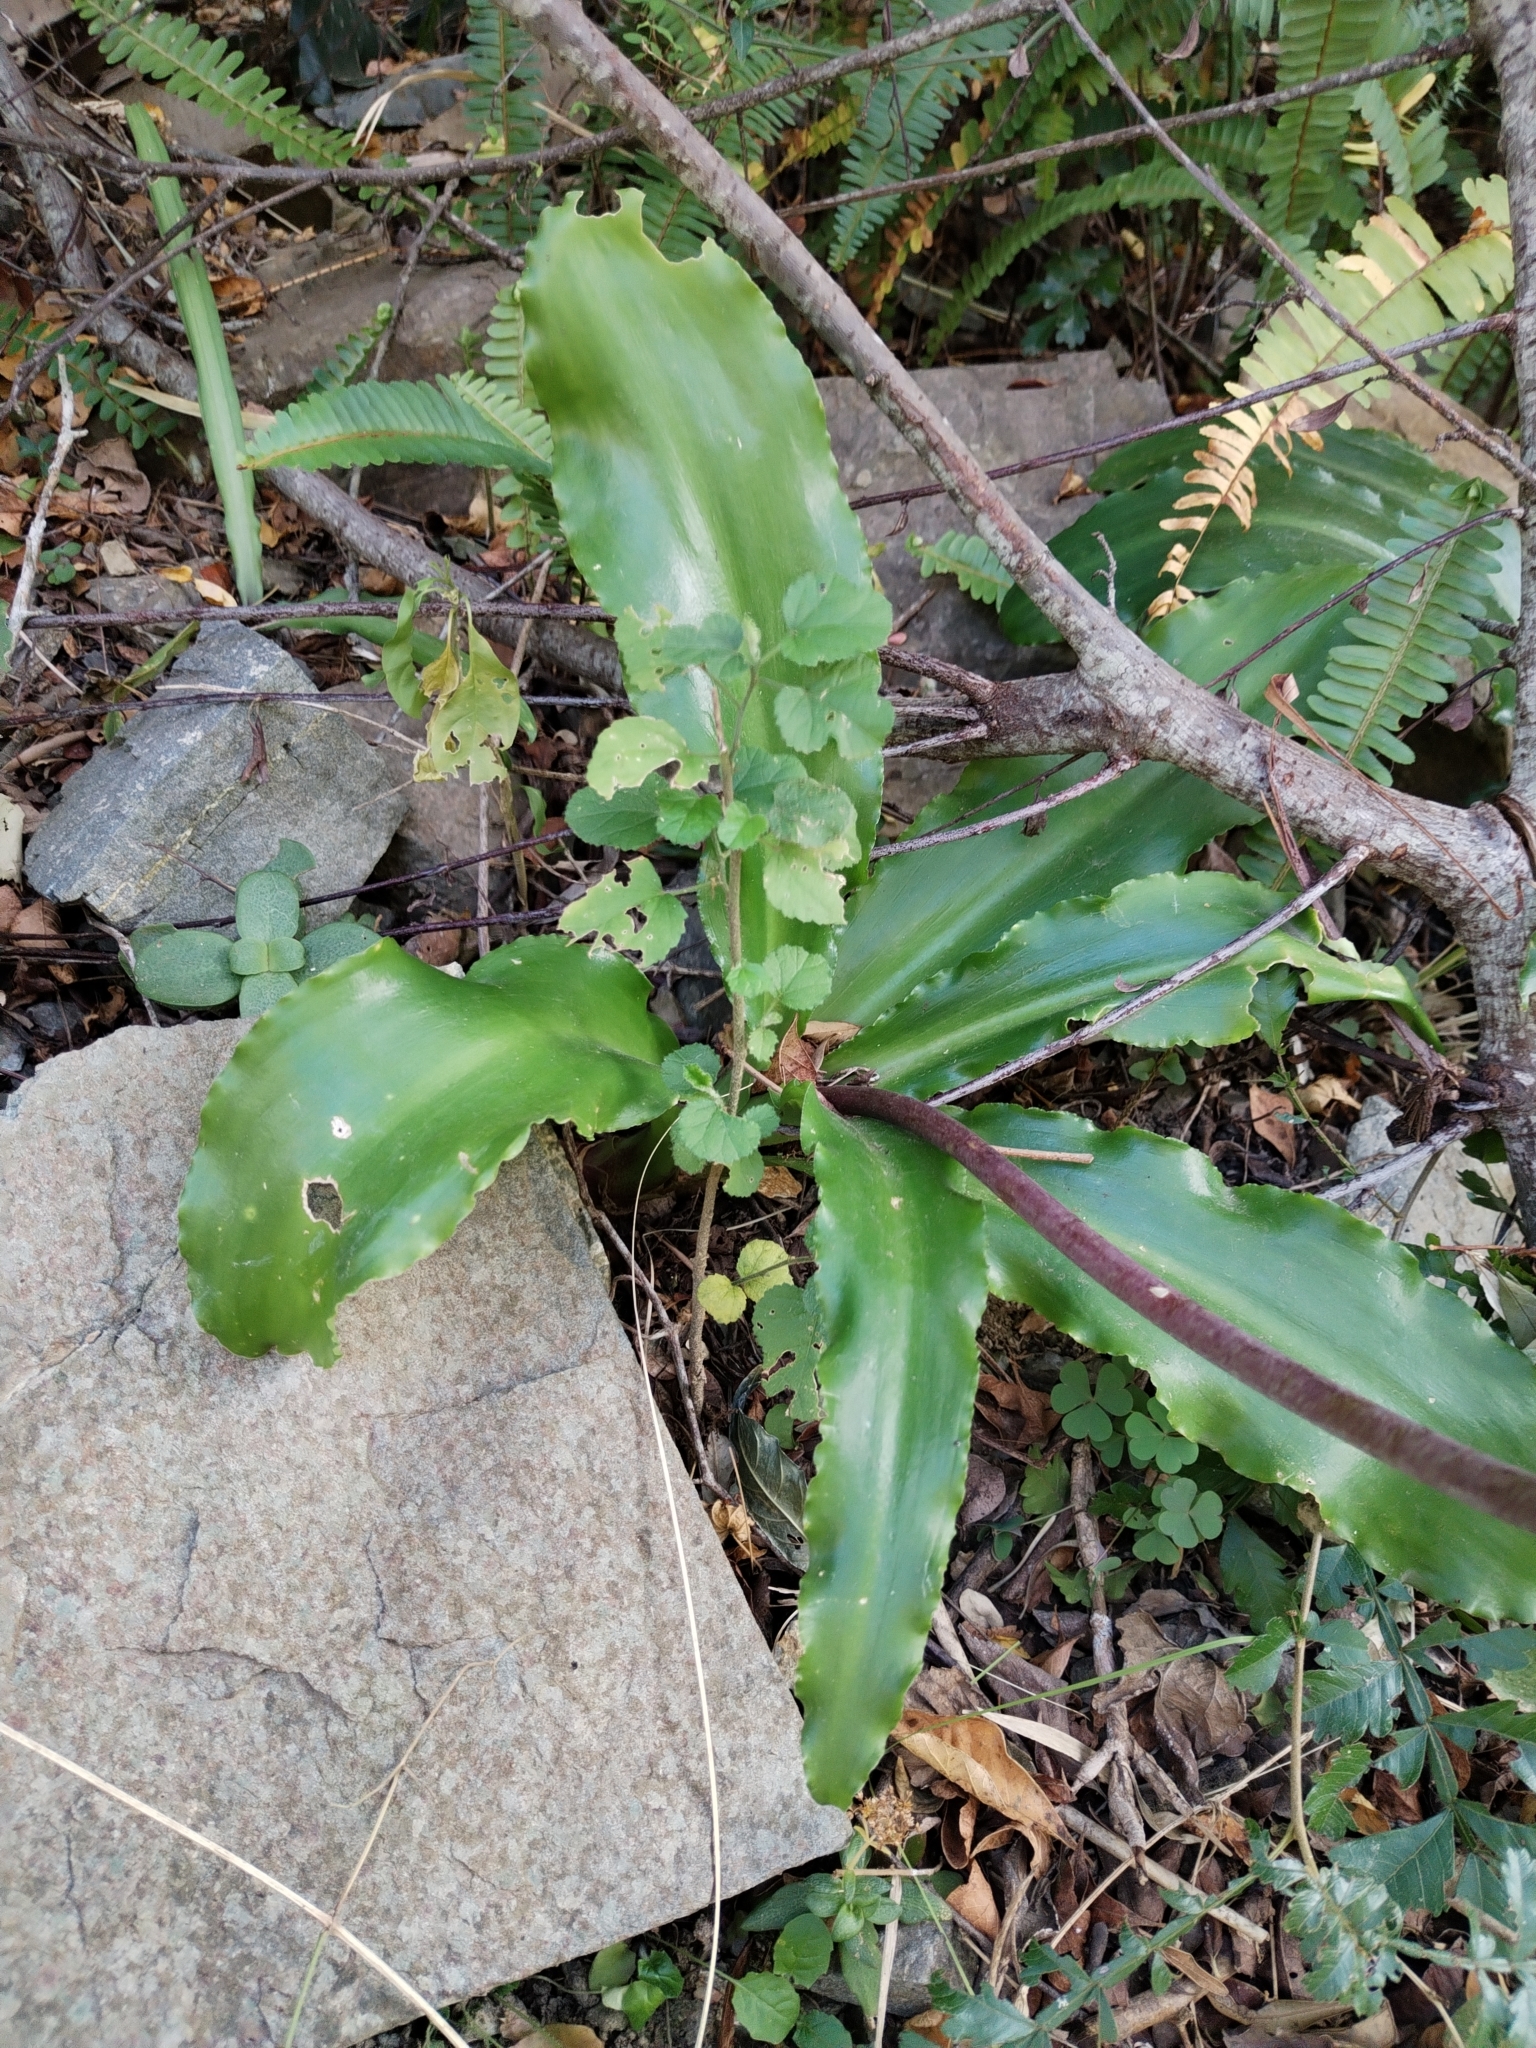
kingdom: Plantae
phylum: Tracheophyta
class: Liliopsida
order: Asparagales
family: Asparagaceae
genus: Veltheimia
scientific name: Veltheimia bracteata
